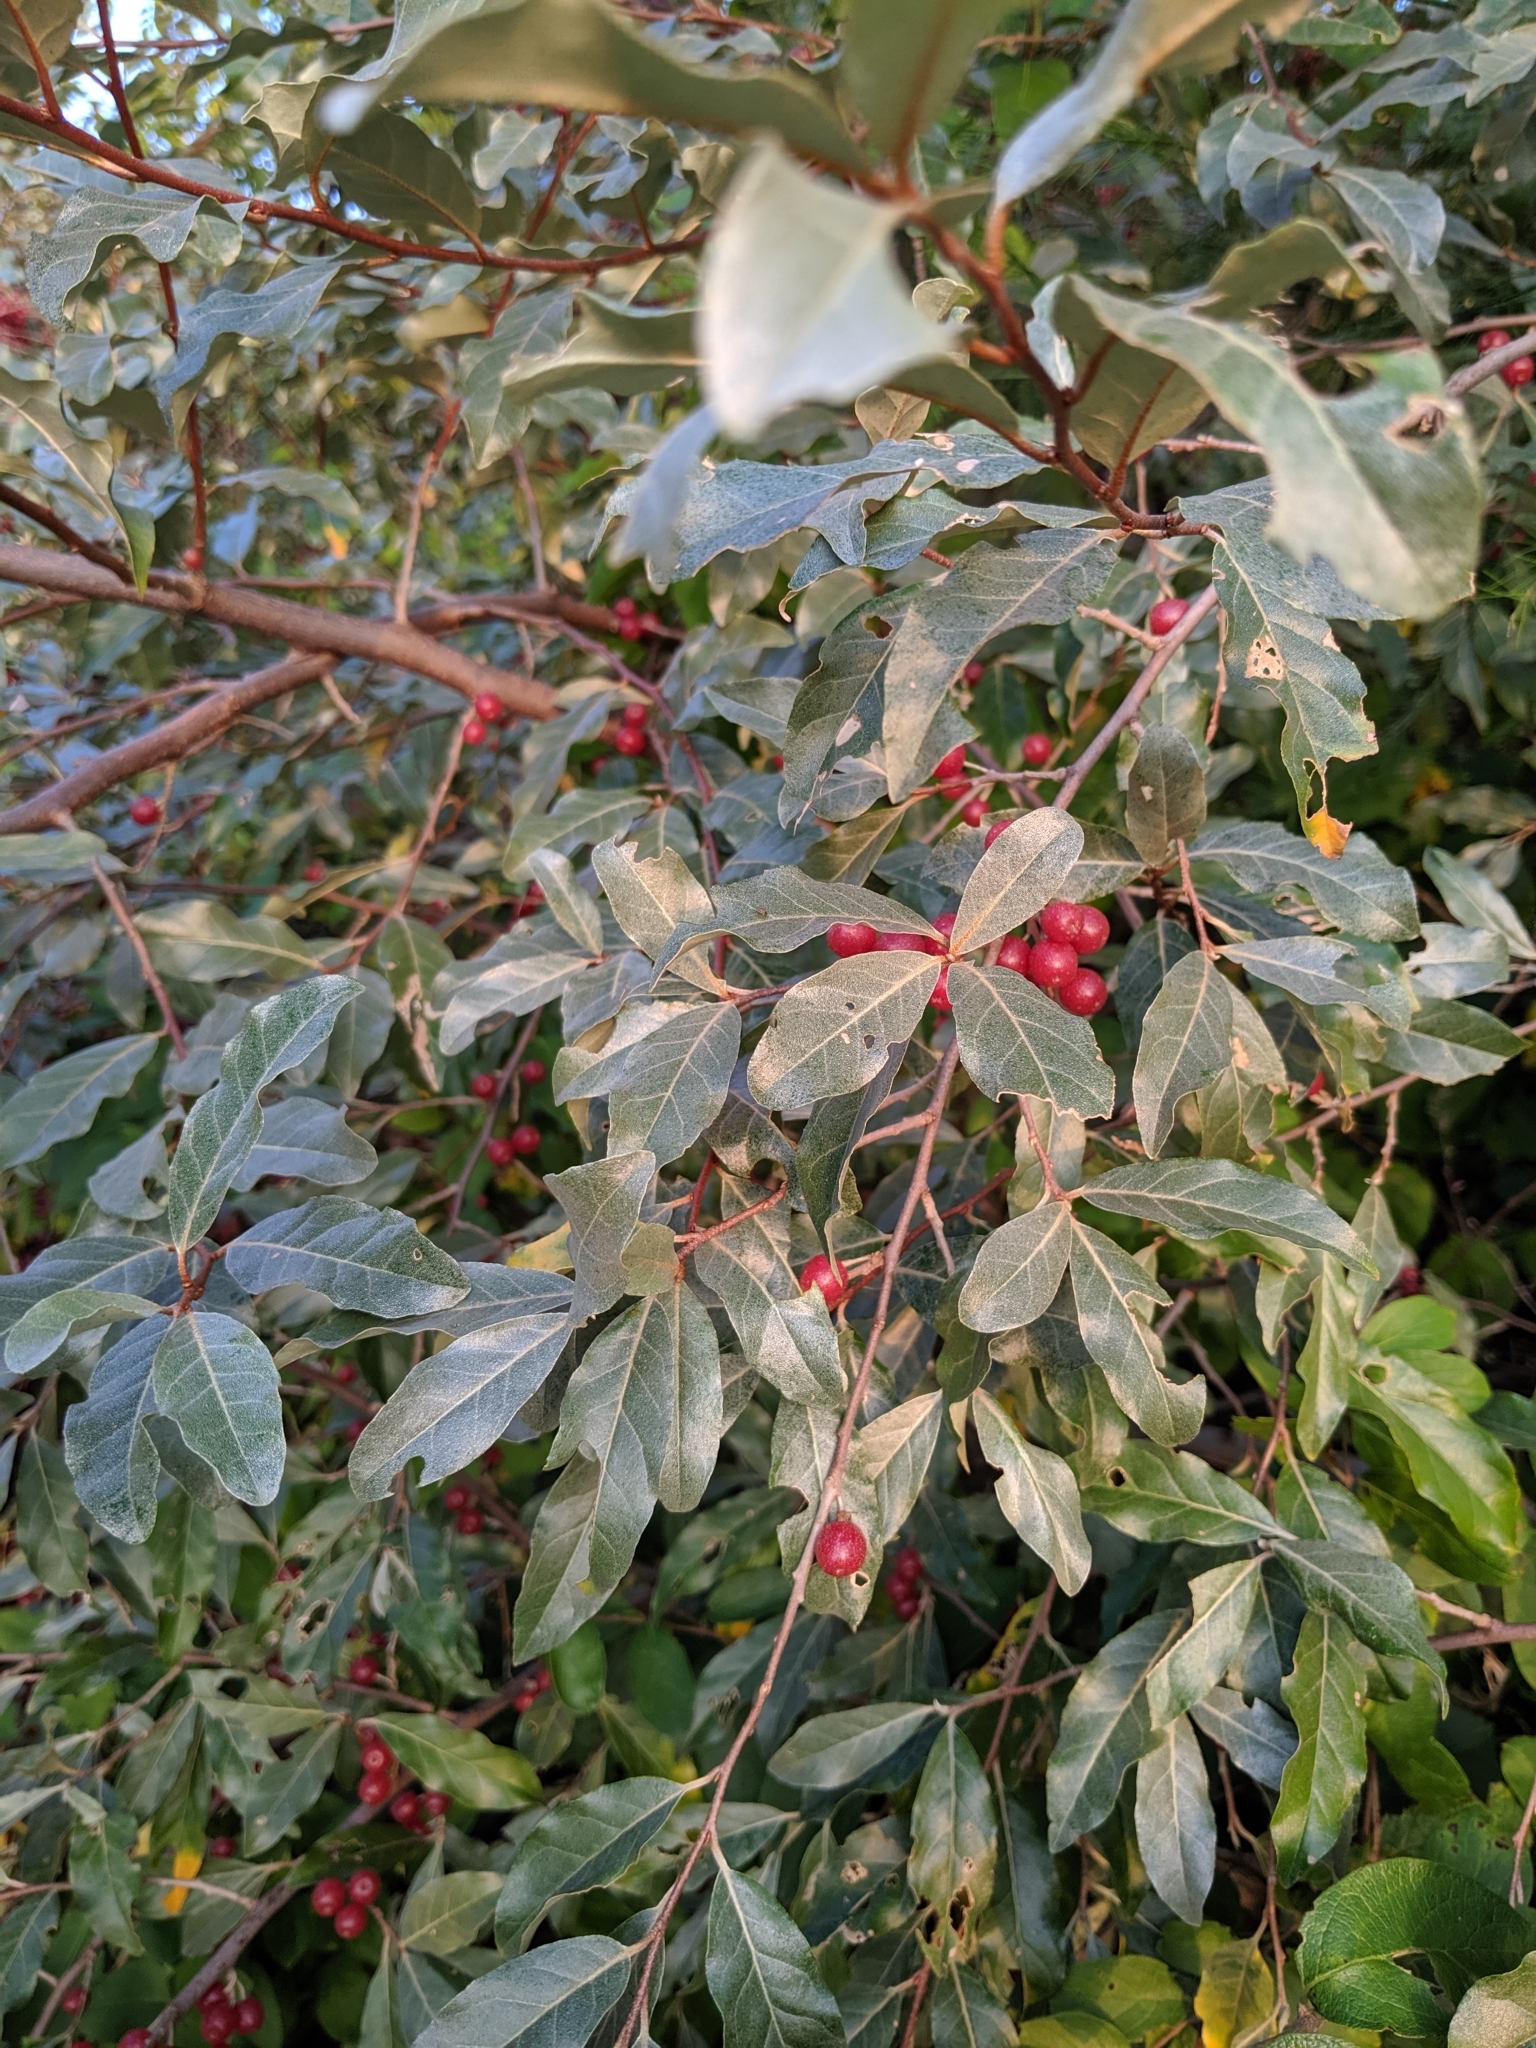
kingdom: Plantae
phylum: Tracheophyta
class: Magnoliopsida
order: Rosales
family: Elaeagnaceae
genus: Elaeagnus
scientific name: Elaeagnus umbellata
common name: Autumn olive
